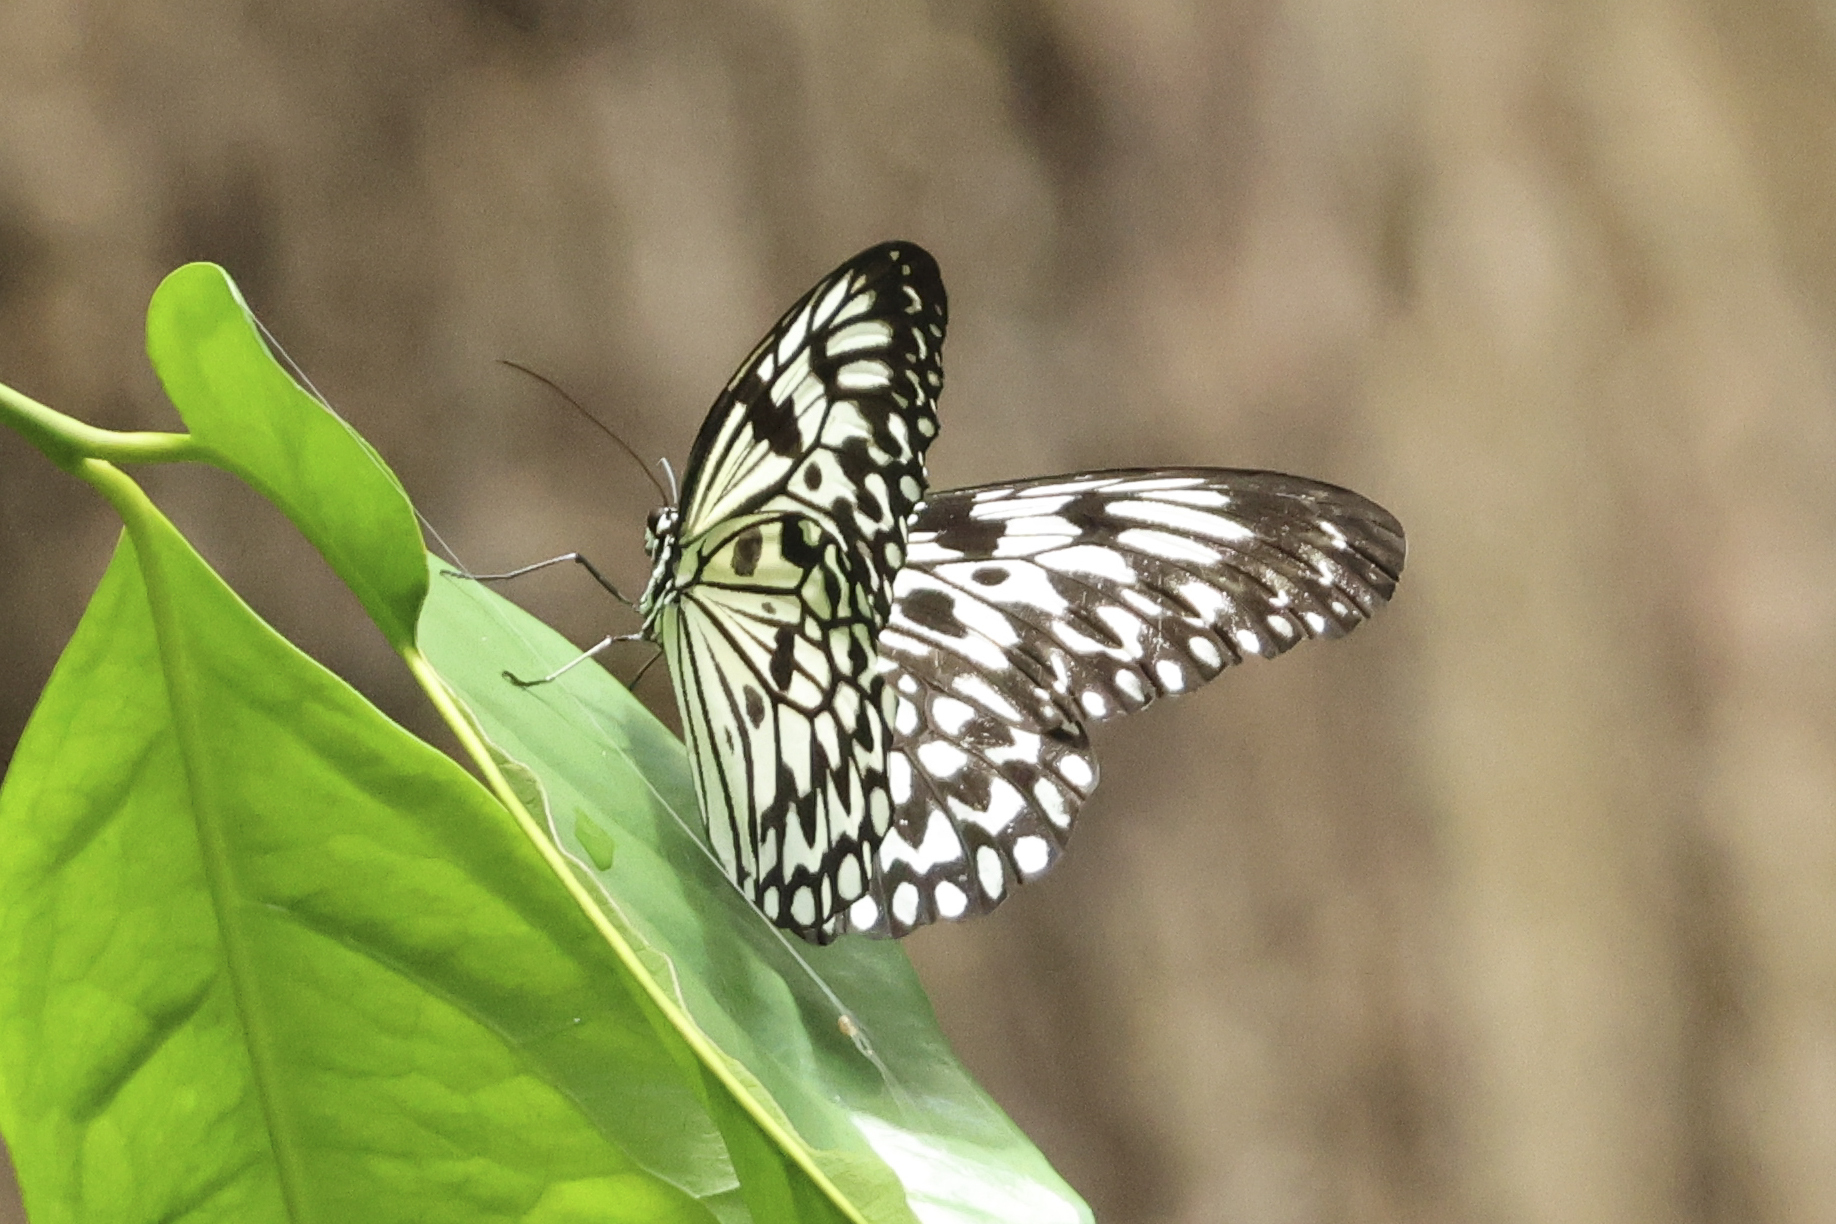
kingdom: Animalia
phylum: Arthropoda
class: Insecta
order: Lepidoptera
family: Nymphalidae
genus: Idea
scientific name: Idea leuconoe
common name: Rice paper butterfly
